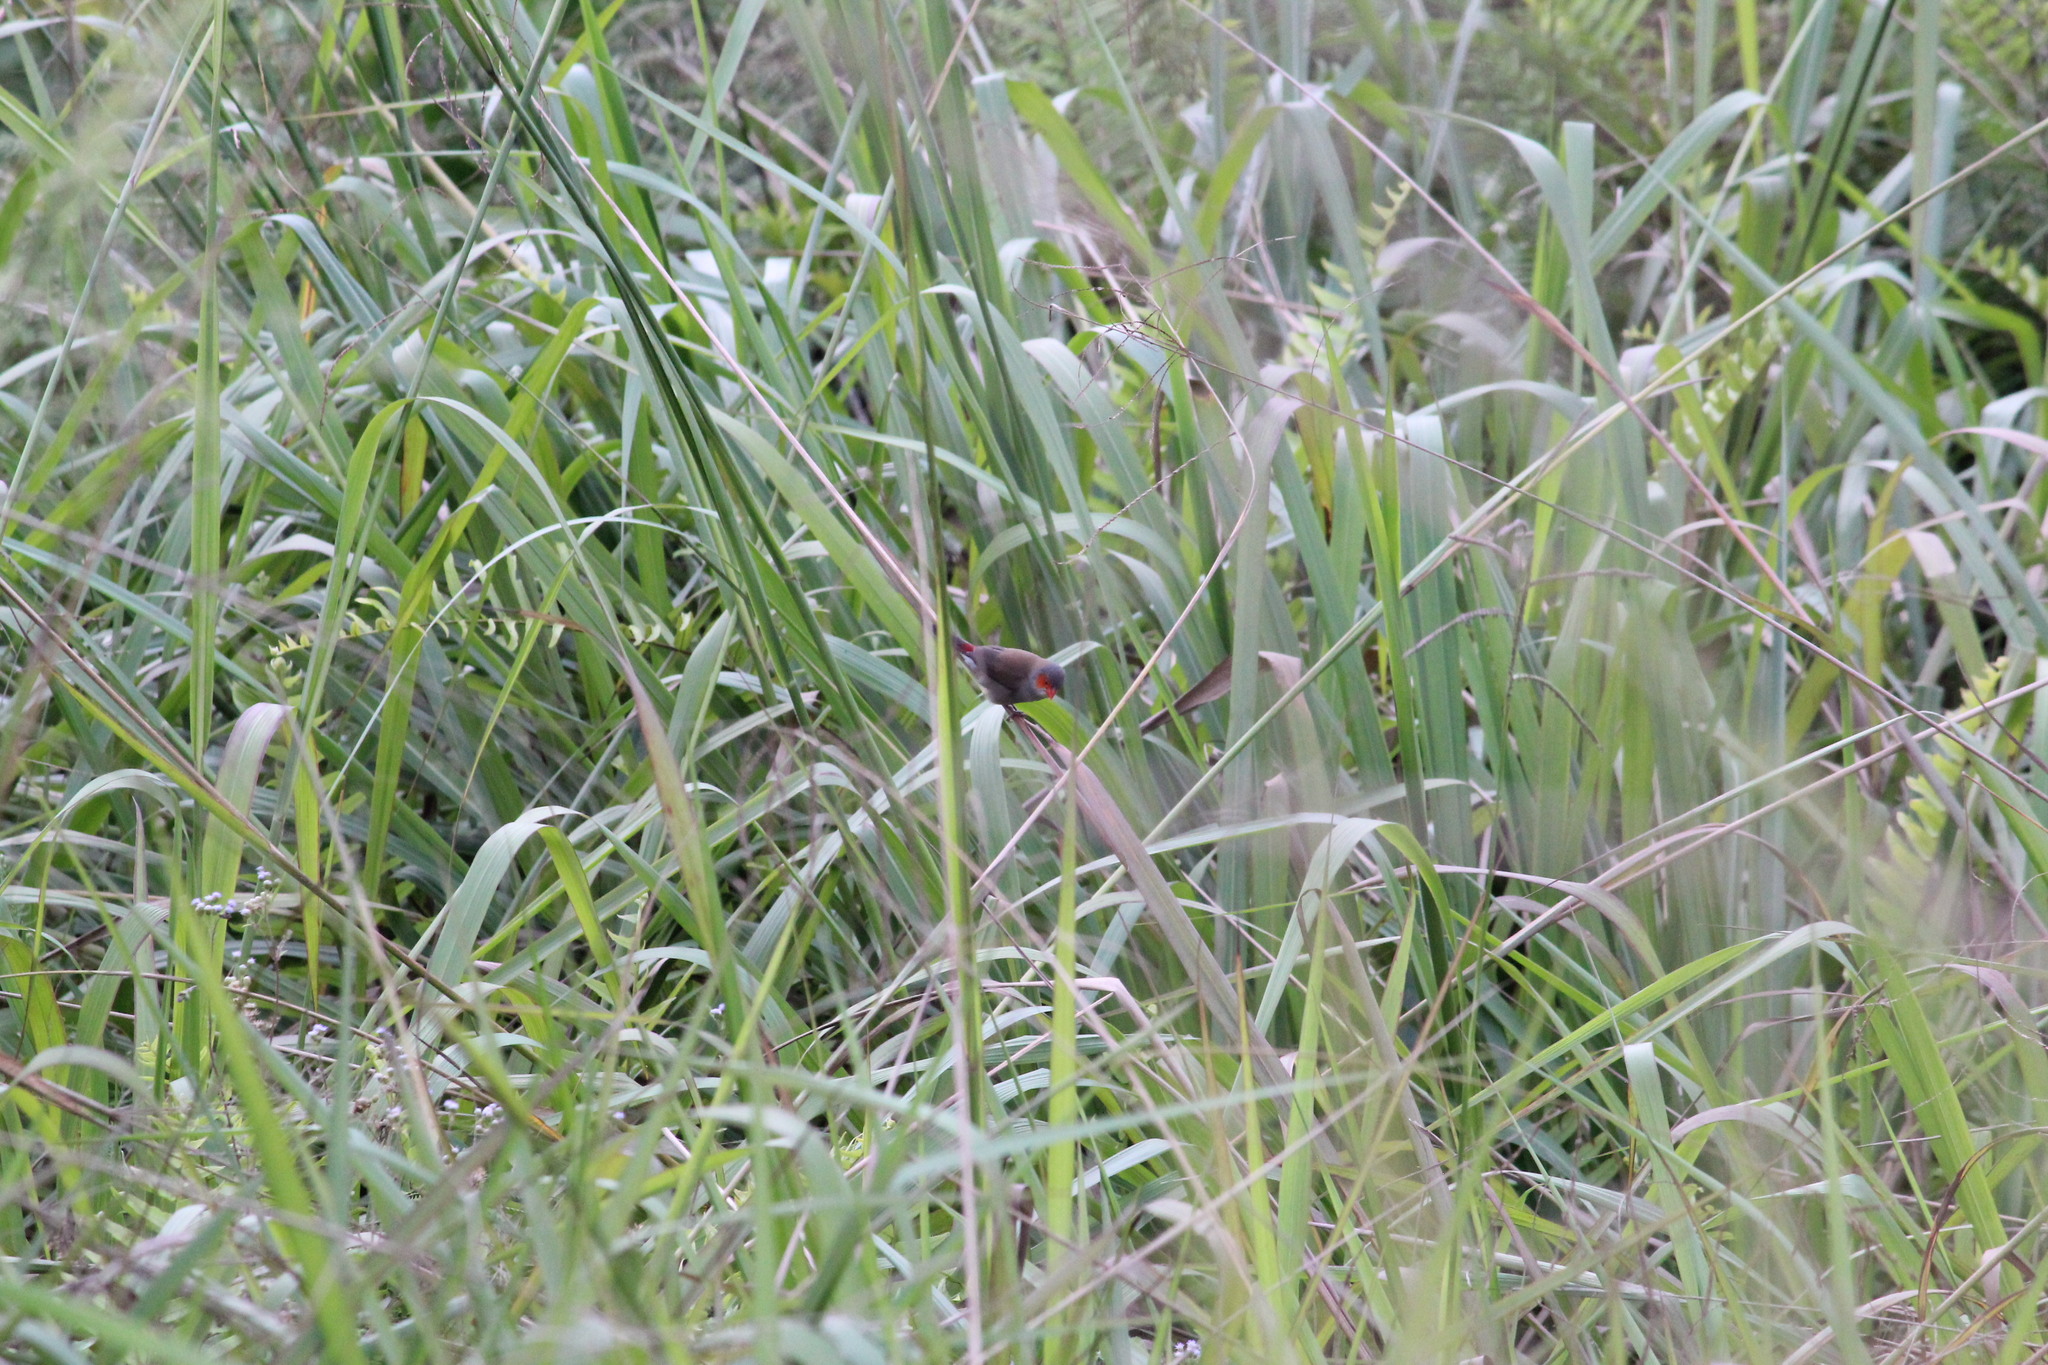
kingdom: Animalia
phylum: Chordata
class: Aves
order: Passeriformes
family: Estrildidae
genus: Estrilda
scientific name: Estrilda melpoda
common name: Orange-cheeked waxbill
